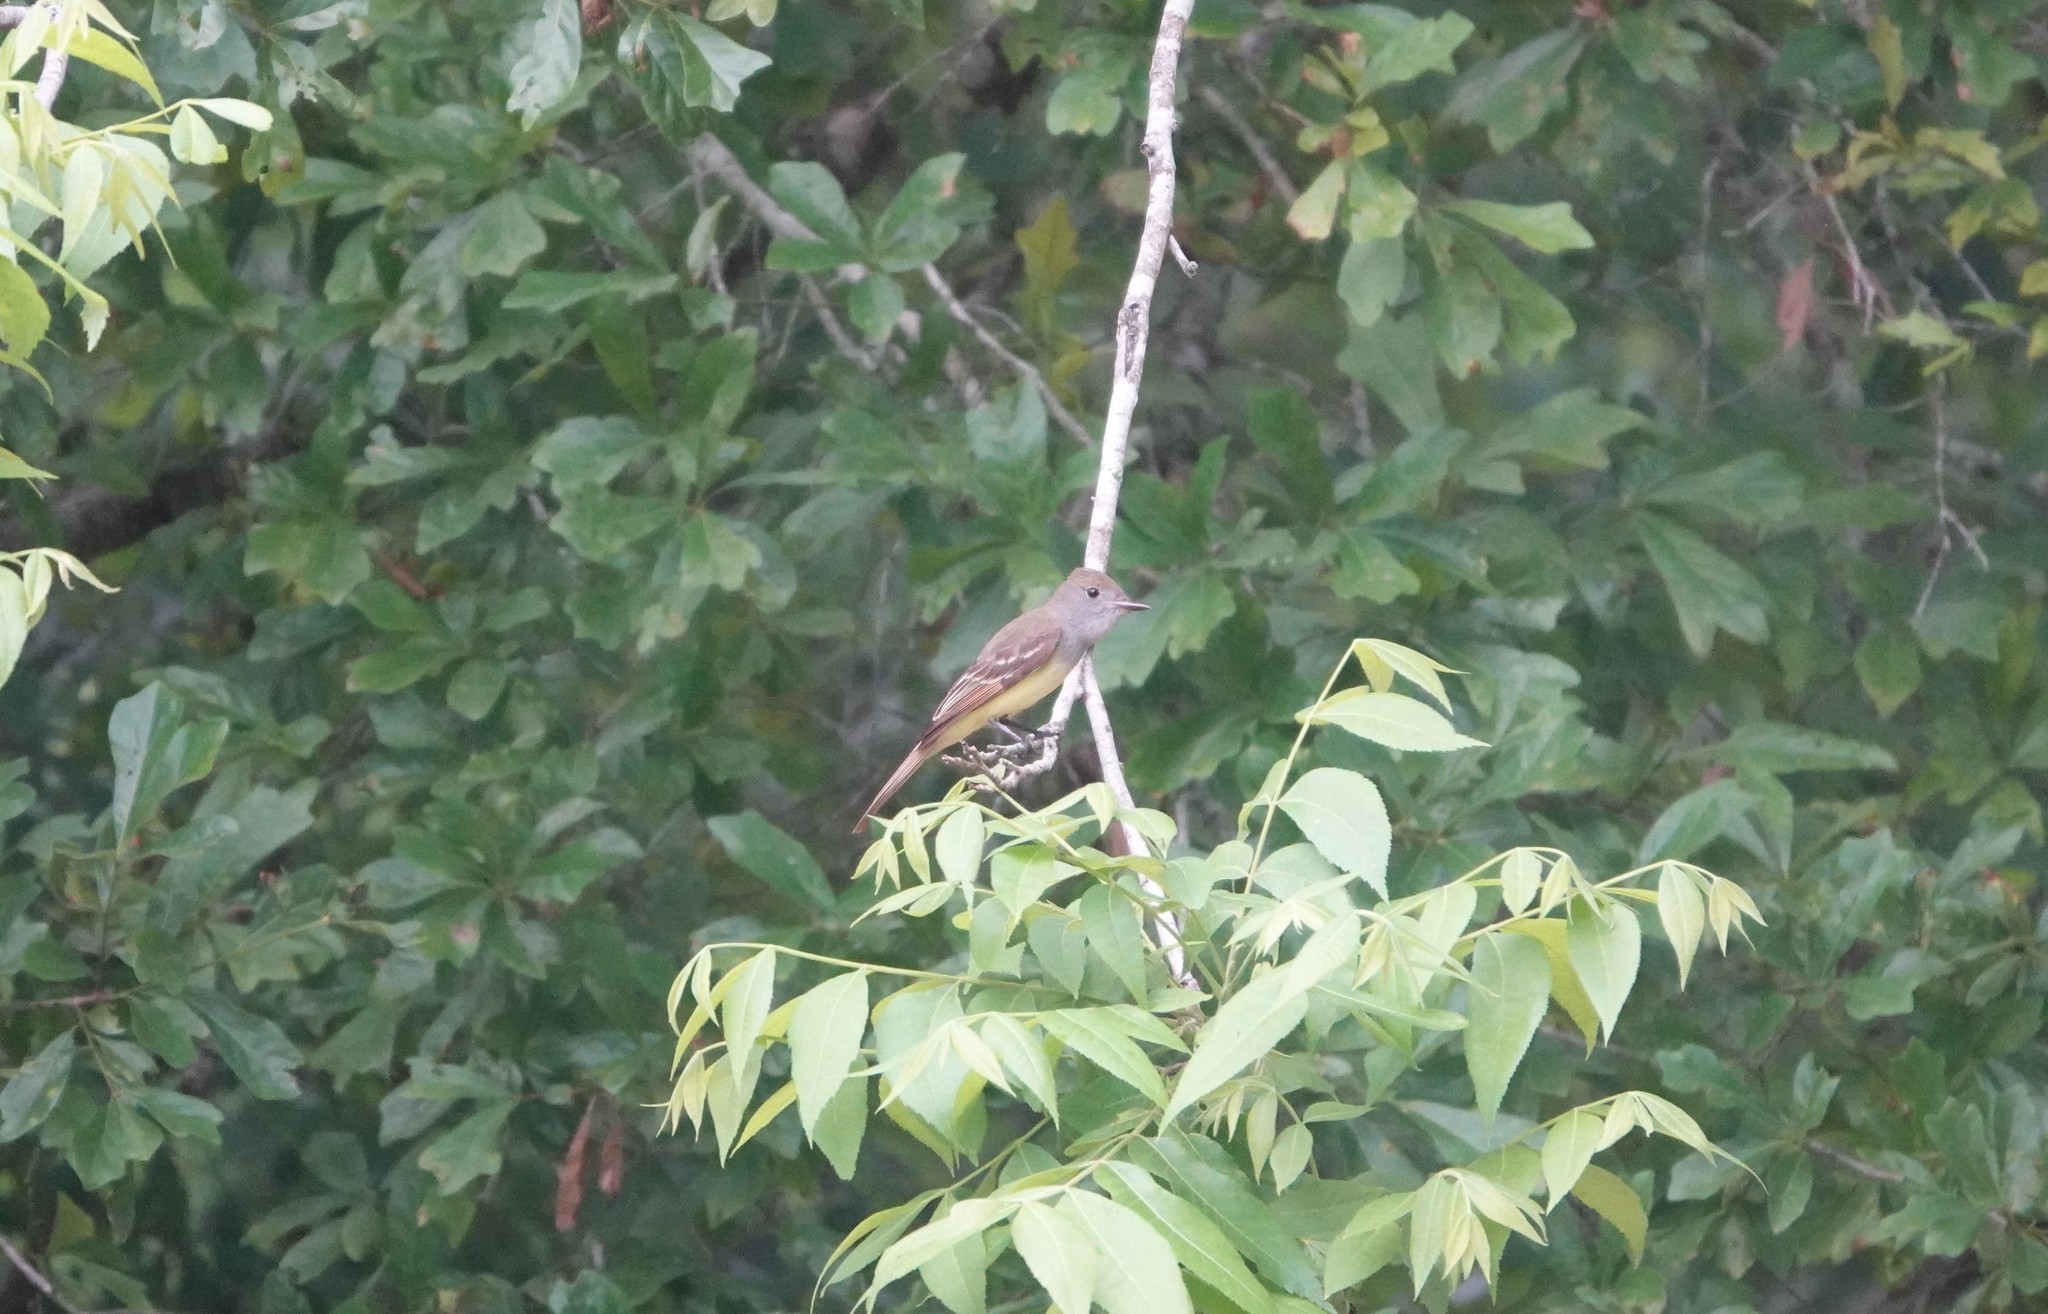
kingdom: Animalia
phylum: Chordata
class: Aves
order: Passeriformes
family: Tyrannidae
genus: Myiarchus
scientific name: Myiarchus crinitus
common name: Great crested flycatcher
